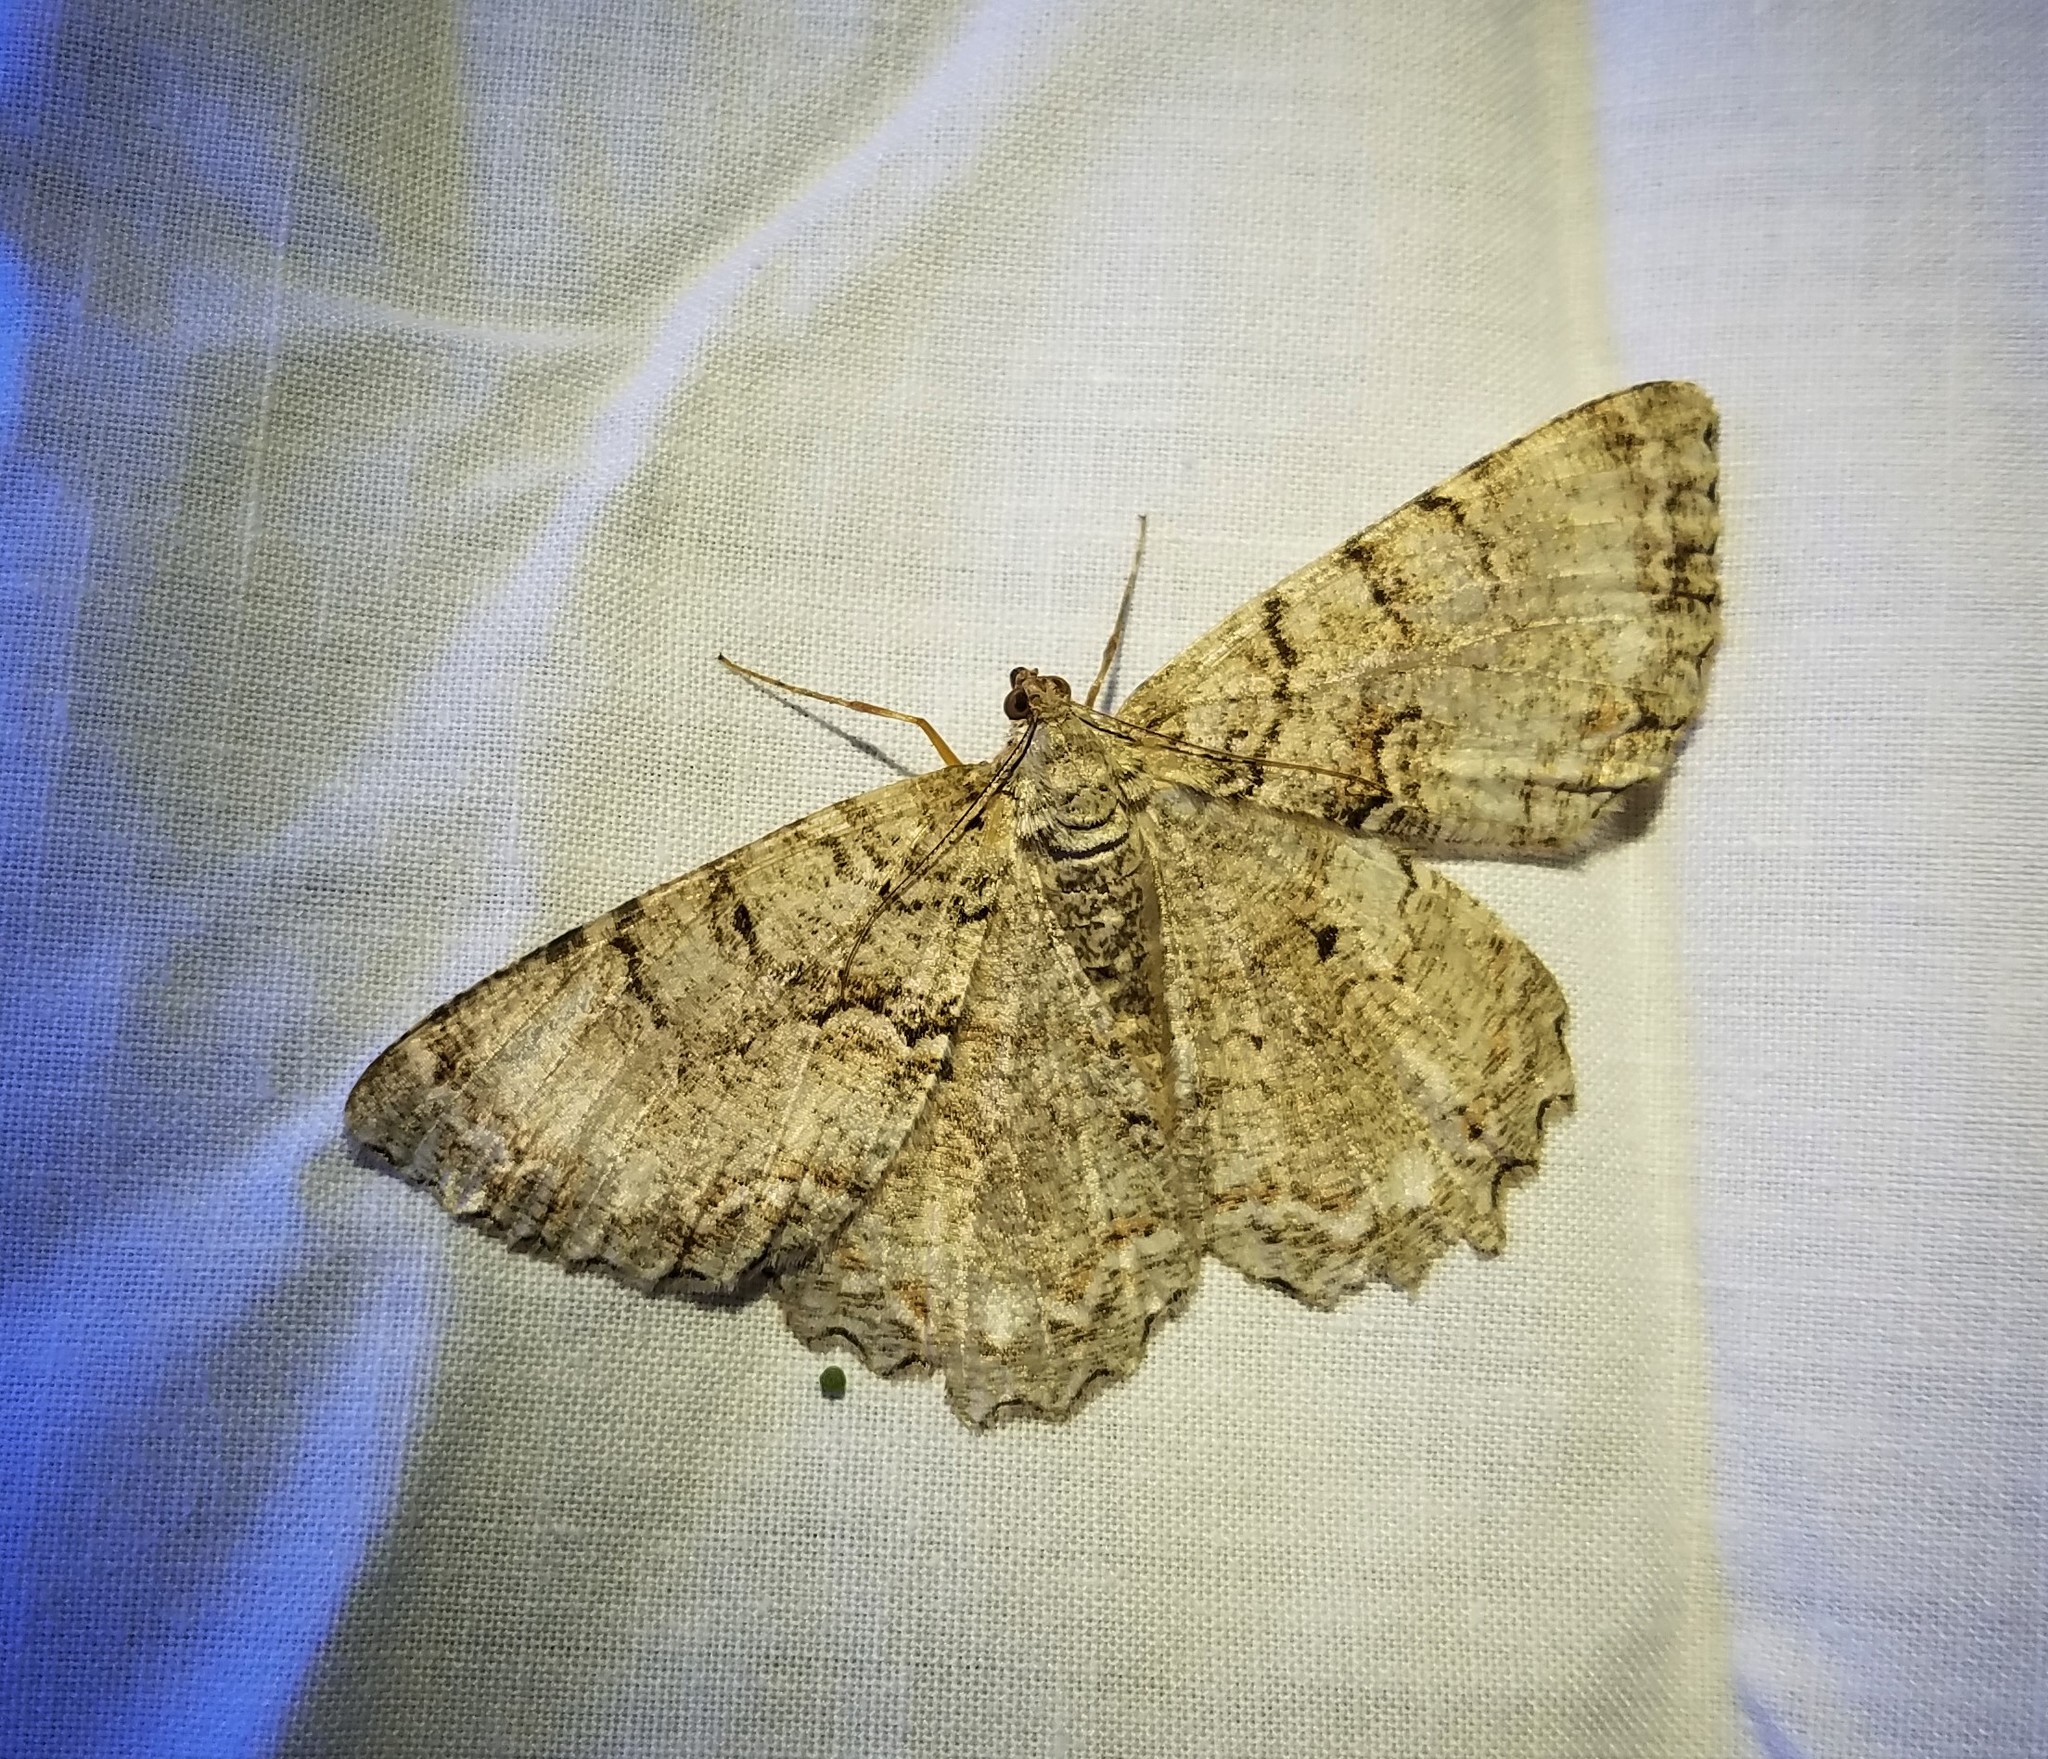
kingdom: Animalia
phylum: Arthropoda
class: Insecta
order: Lepidoptera
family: Geometridae
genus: Epimecis
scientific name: Epimecis hortaria
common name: Tulip-tree beauty
